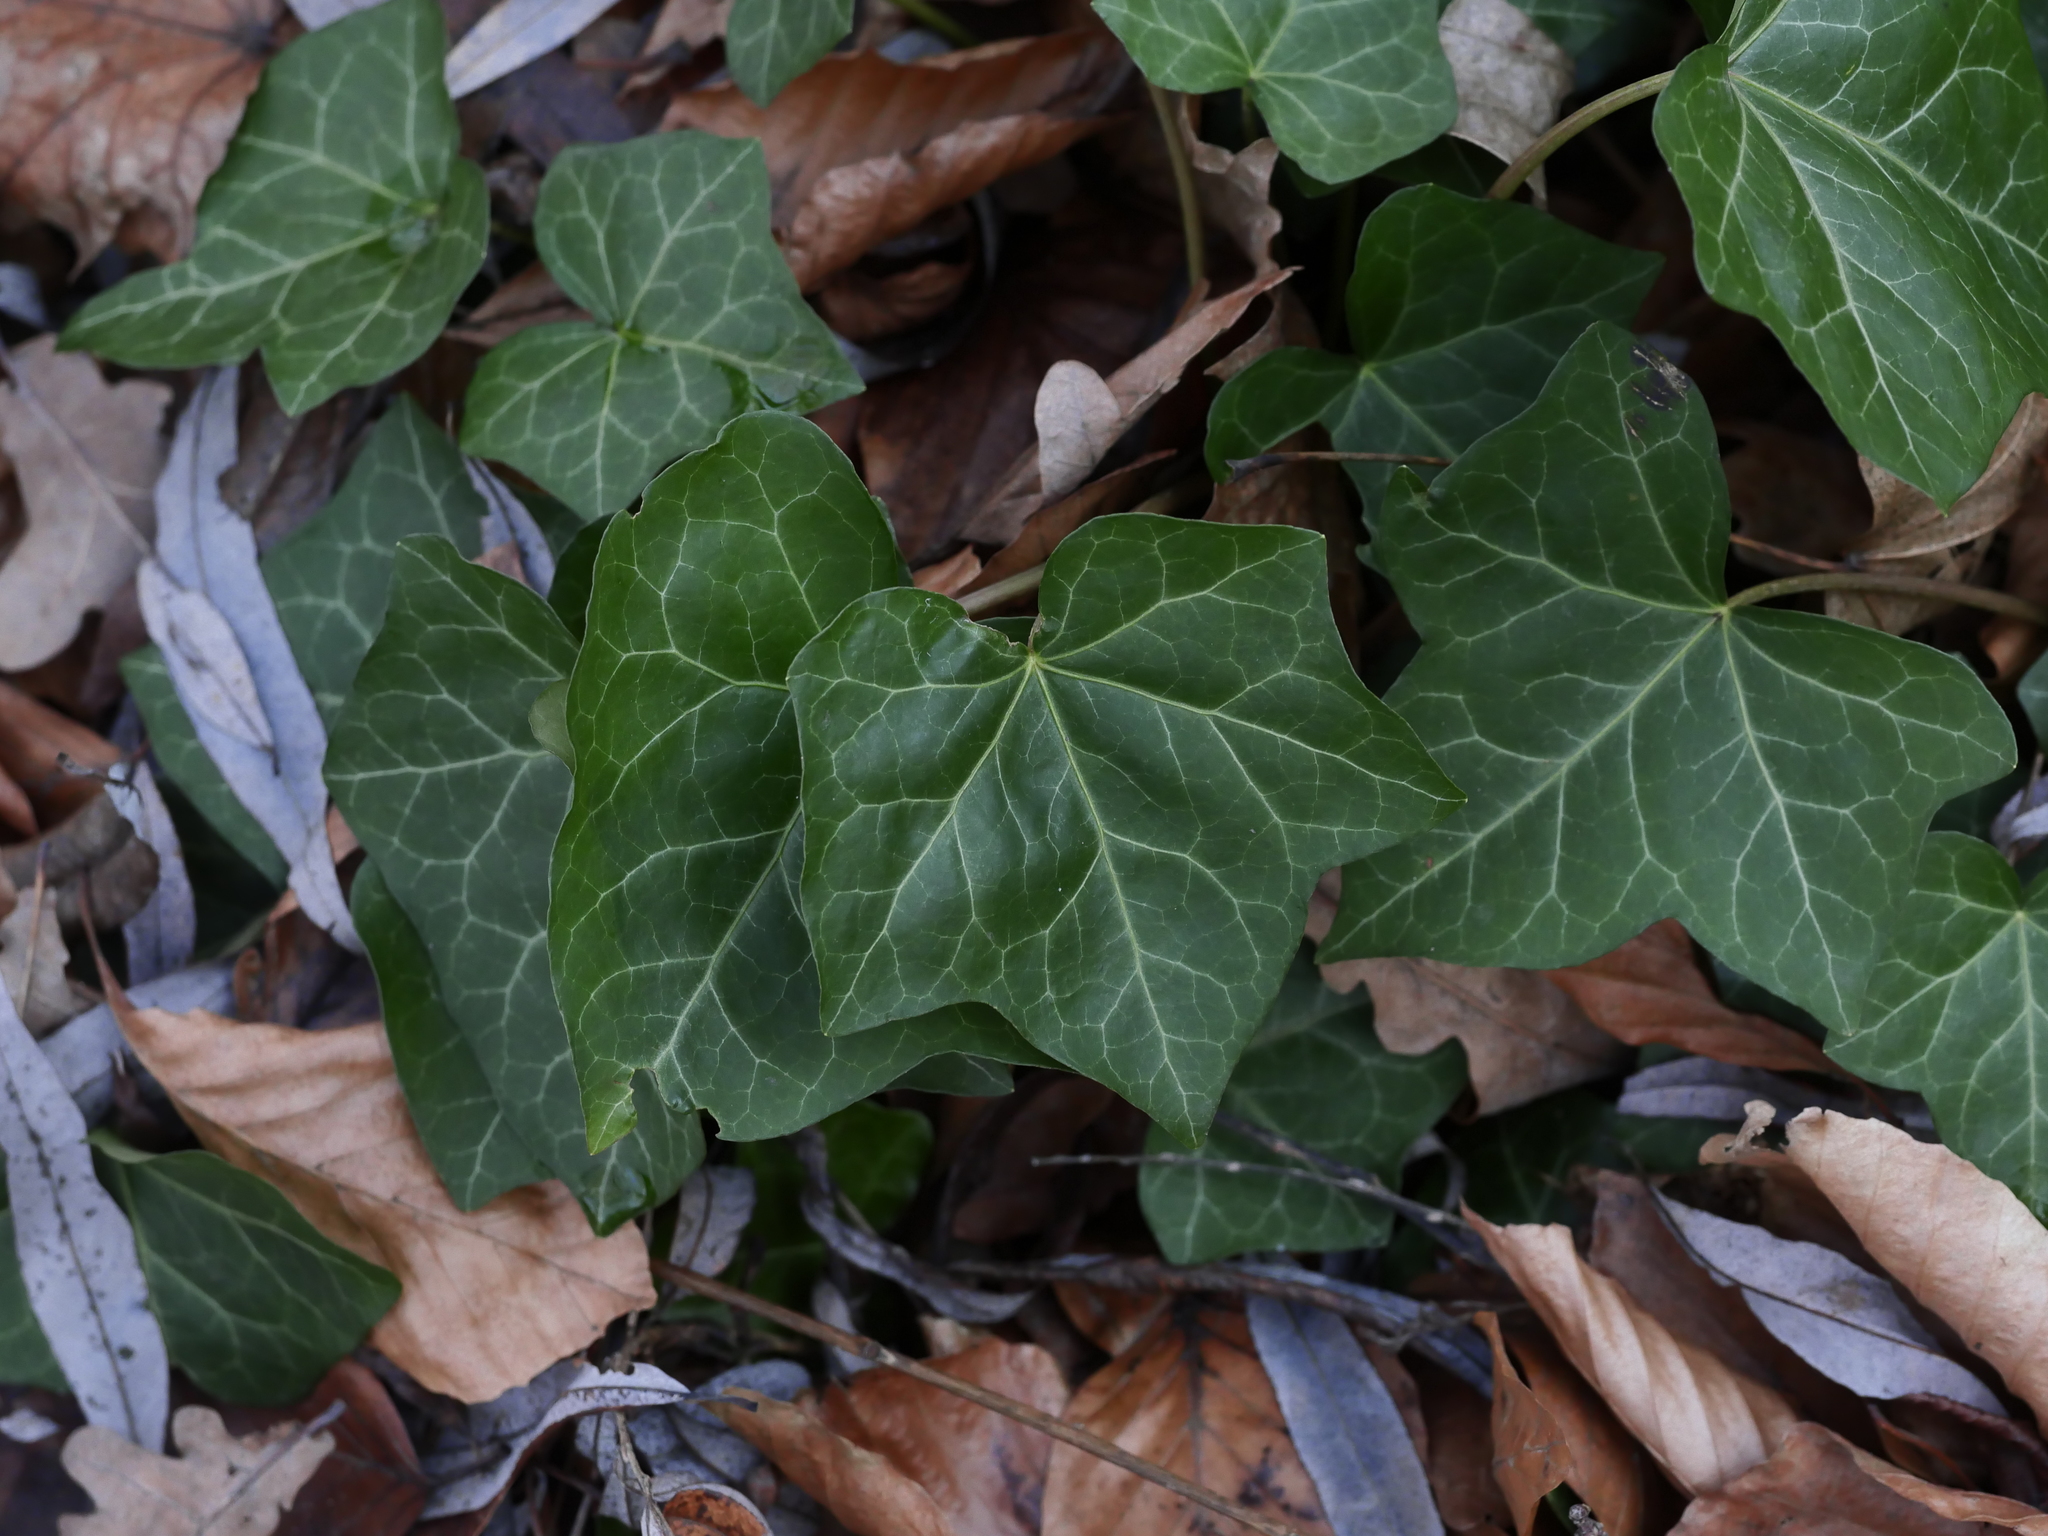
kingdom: Plantae
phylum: Tracheophyta
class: Magnoliopsida
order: Apiales
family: Araliaceae
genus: Hedera
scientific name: Hedera helix
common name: Ivy
